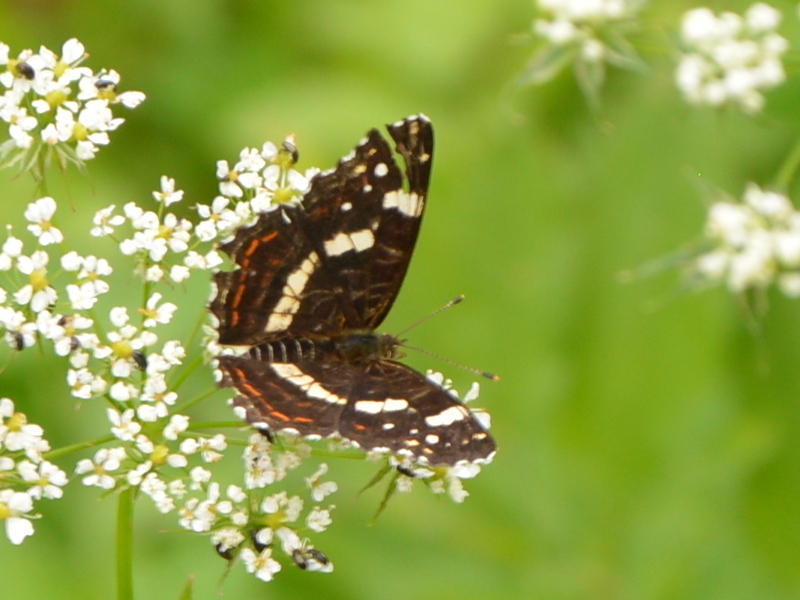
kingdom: Animalia
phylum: Arthropoda
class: Insecta
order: Lepidoptera
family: Nymphalidae
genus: Araschnia
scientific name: Araschnia levana
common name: Map butterfly
